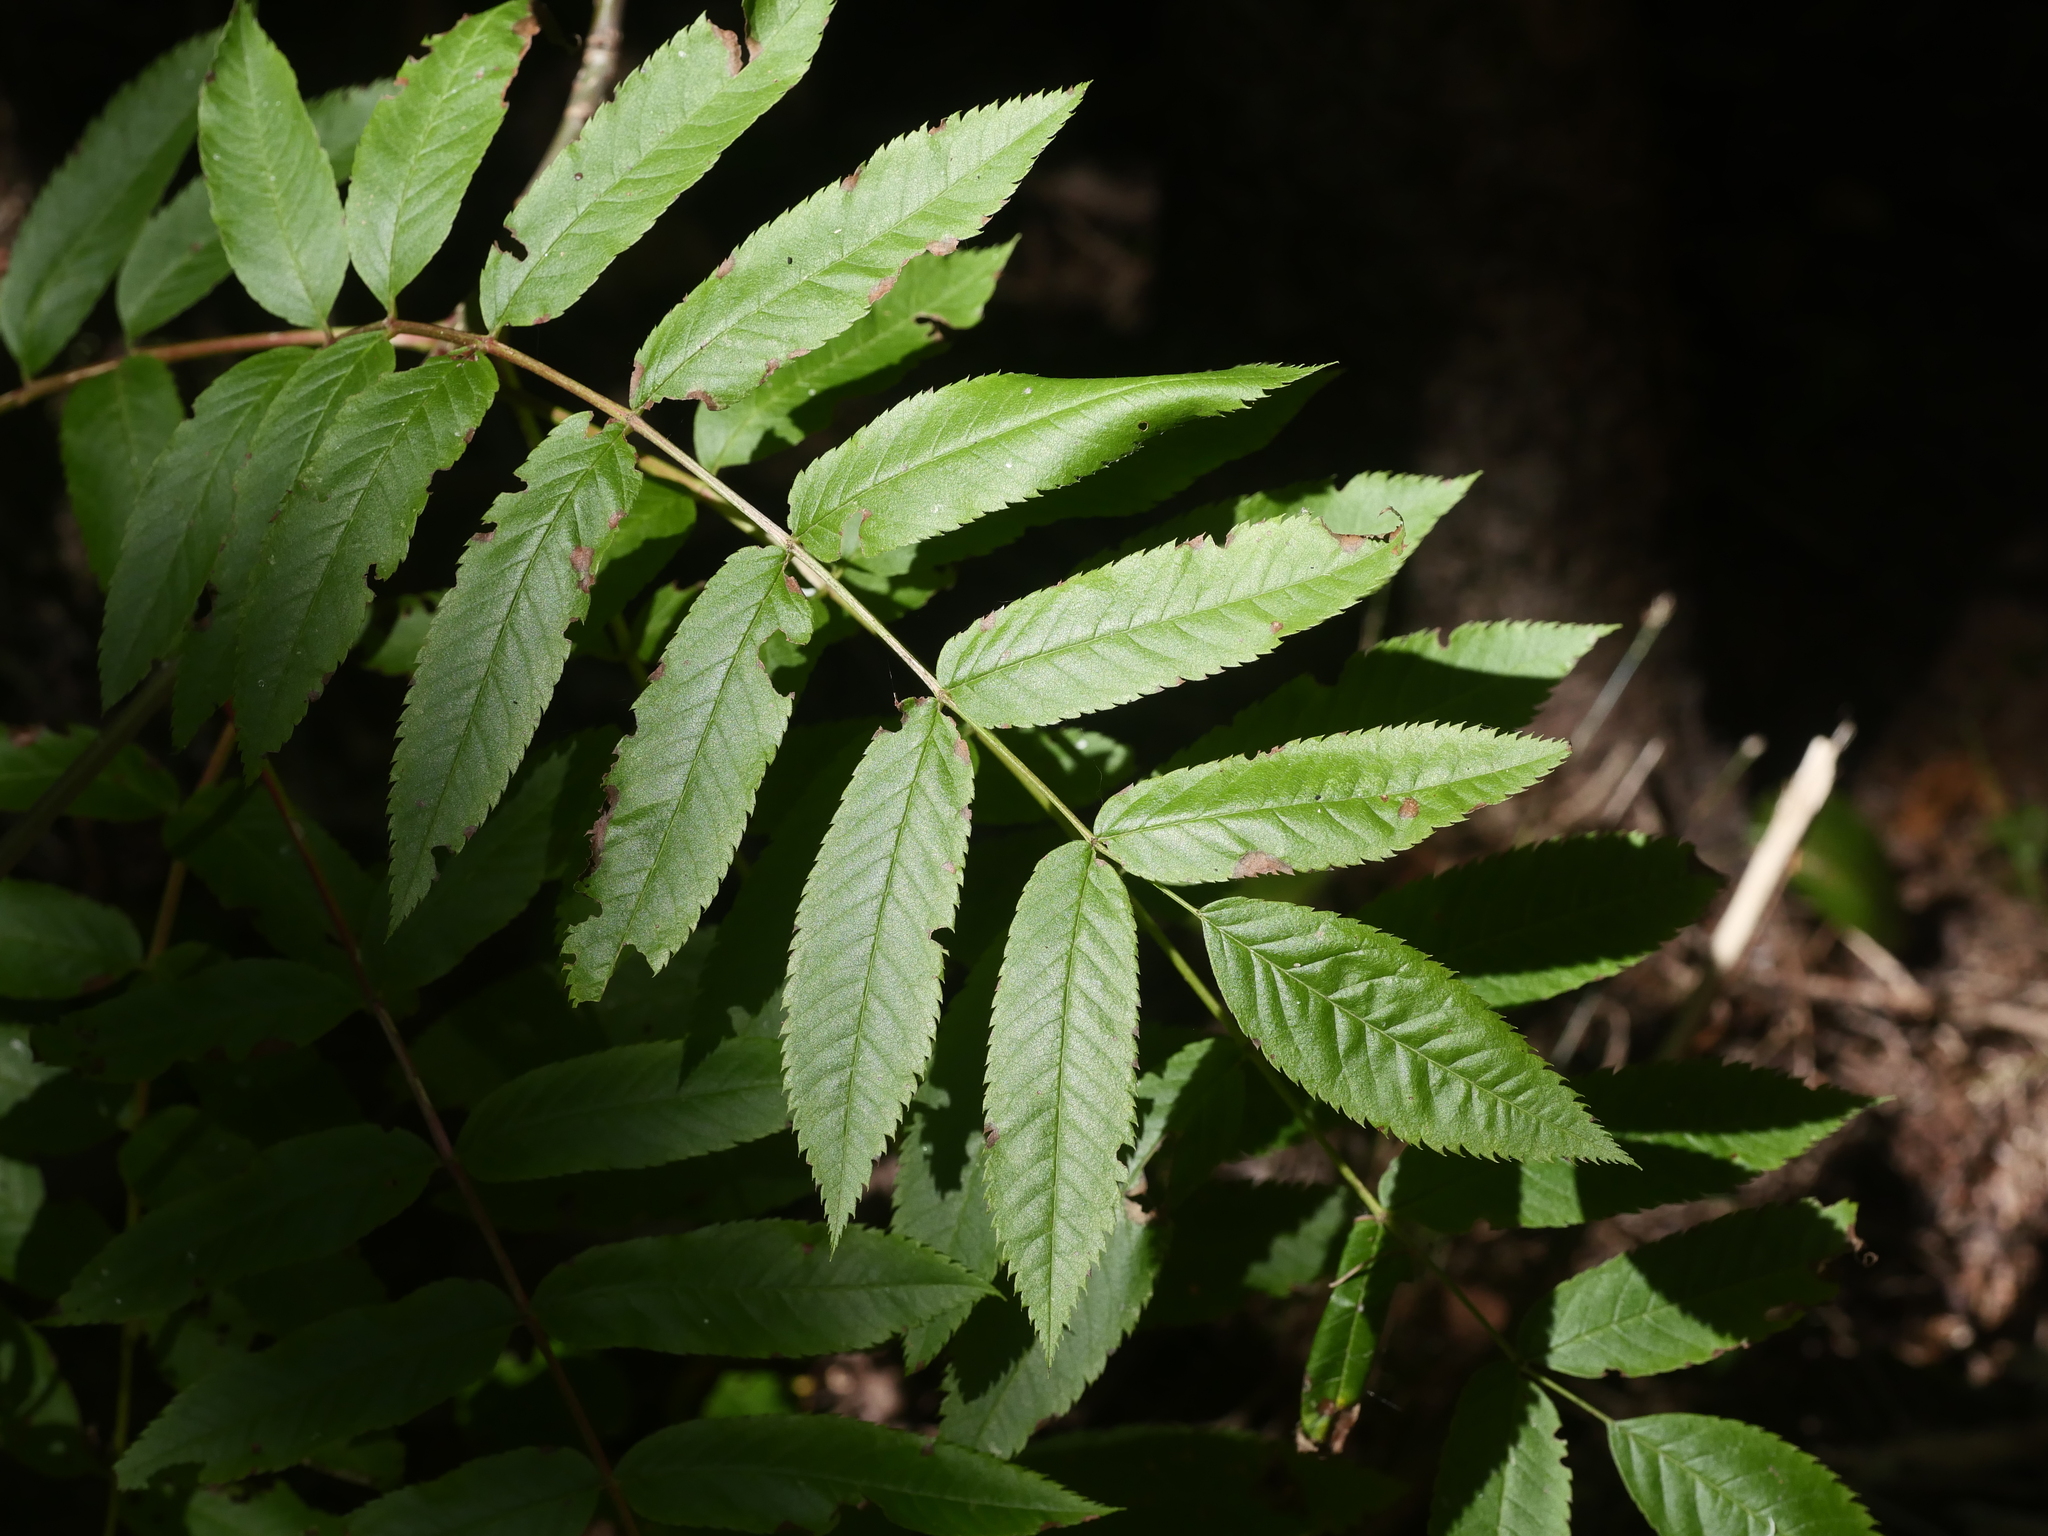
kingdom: Plantae
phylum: Tracheophyta
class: Magnoliopsida
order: Rosales
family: Rosaceae
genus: Sorbus
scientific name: Sorbus americana
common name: American mountain-ash
